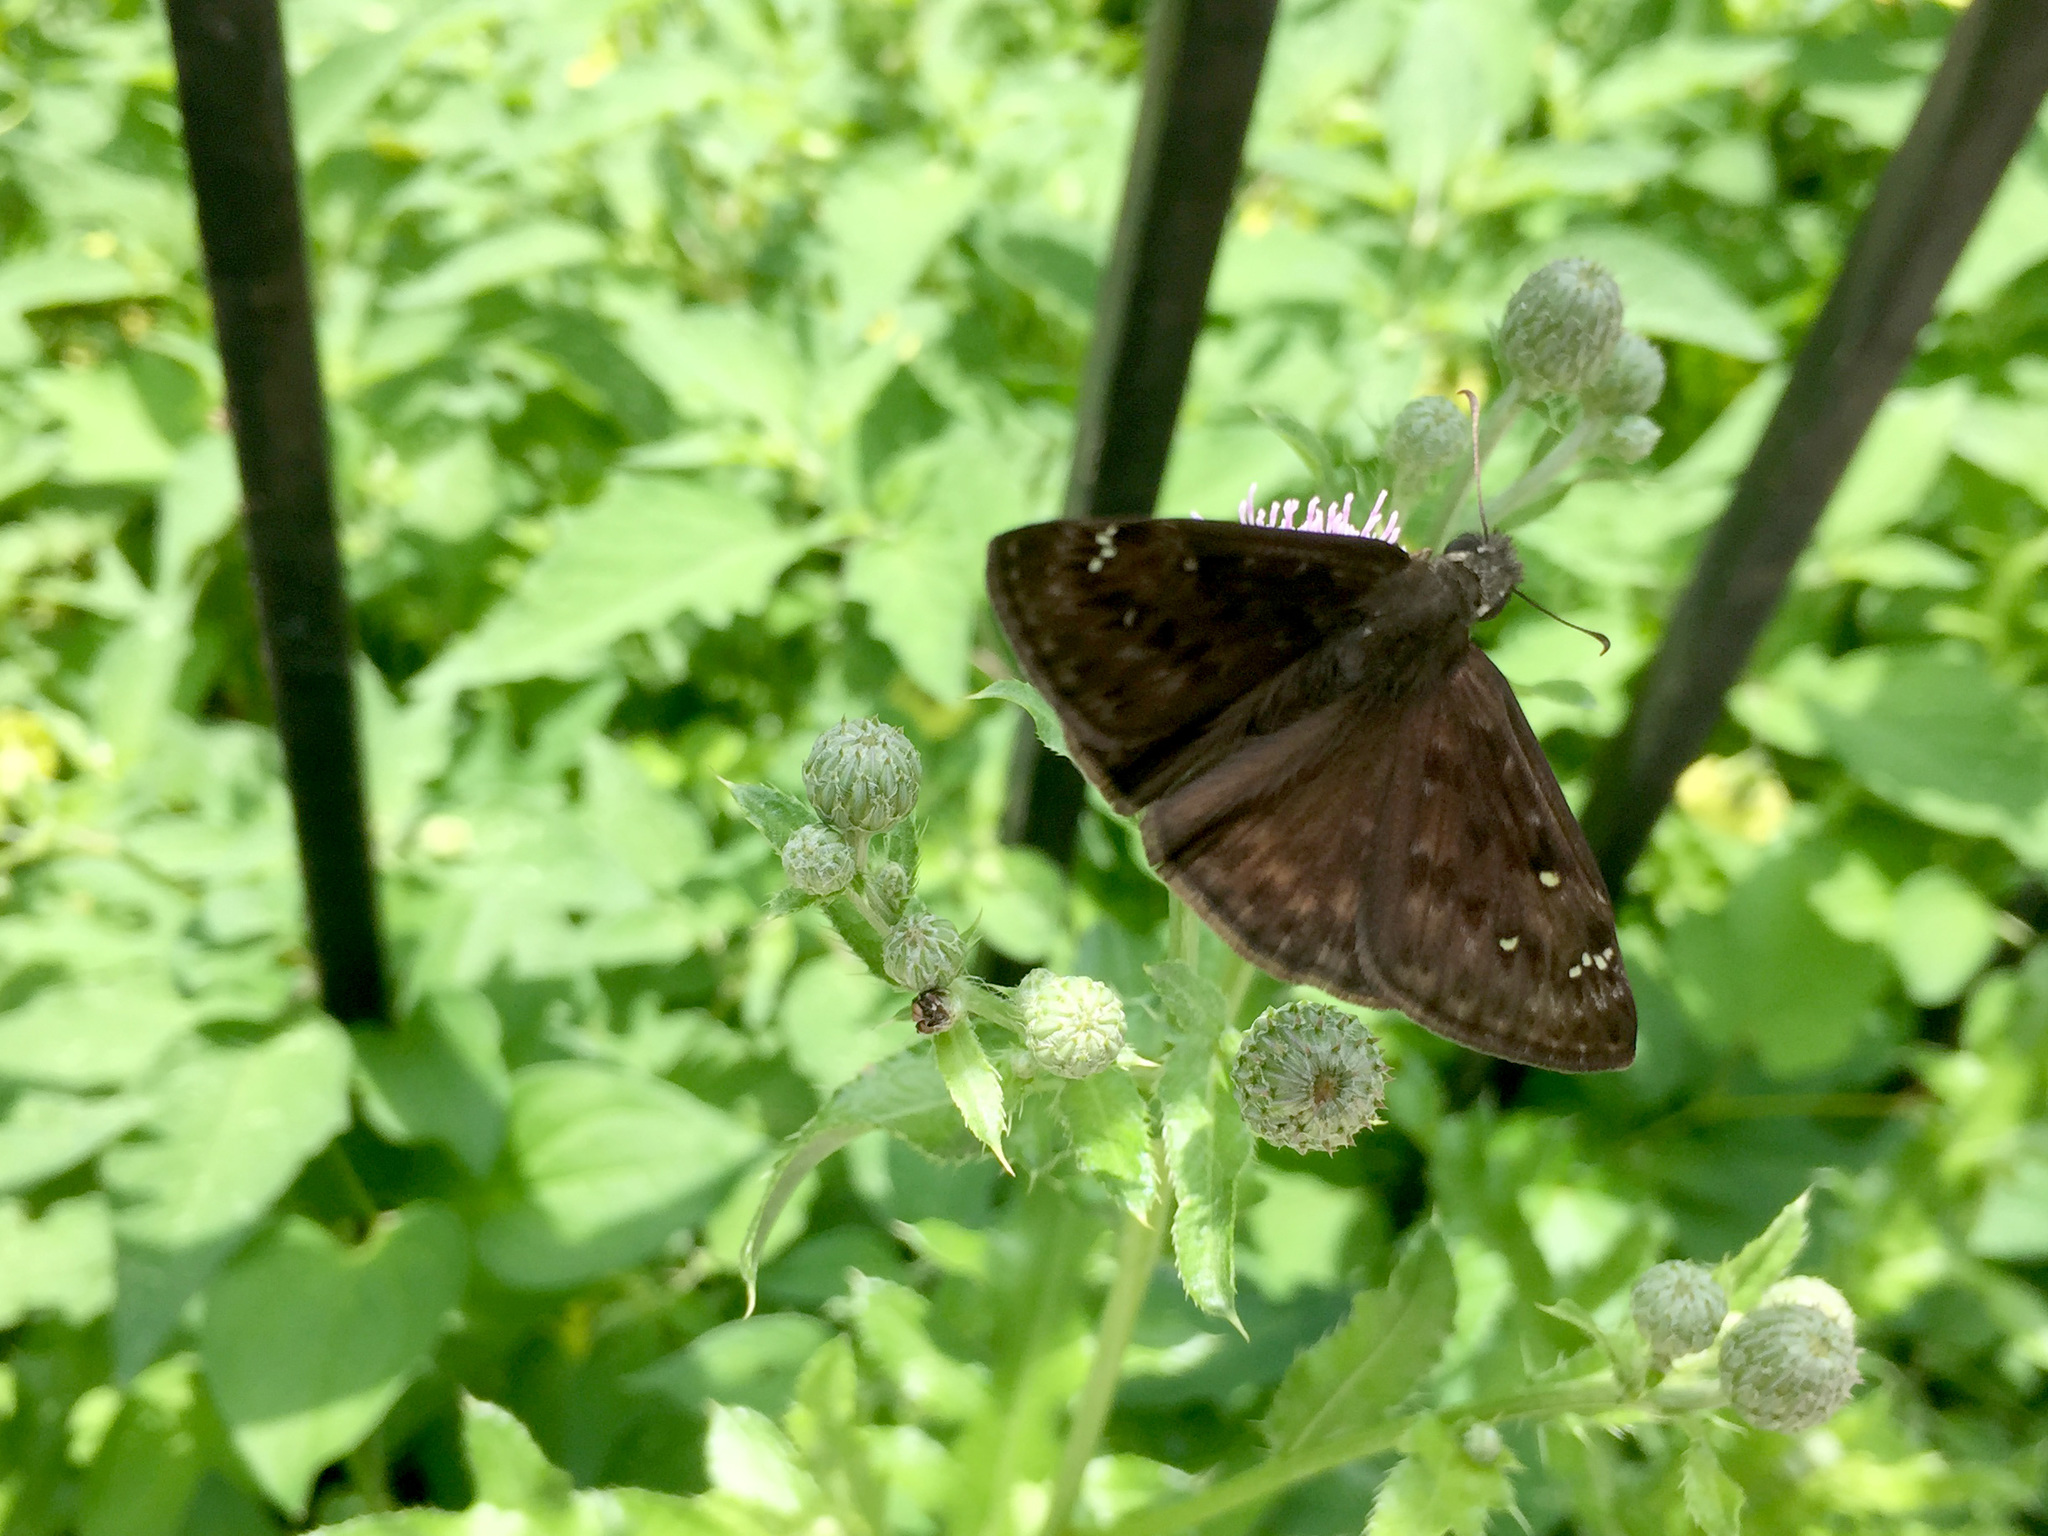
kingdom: Animalia
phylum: Arthropoda
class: Insecta
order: Lepidoptera
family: Hesperiidae
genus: Erynnis
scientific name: Erynnis horatius
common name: Horace's duskywing
